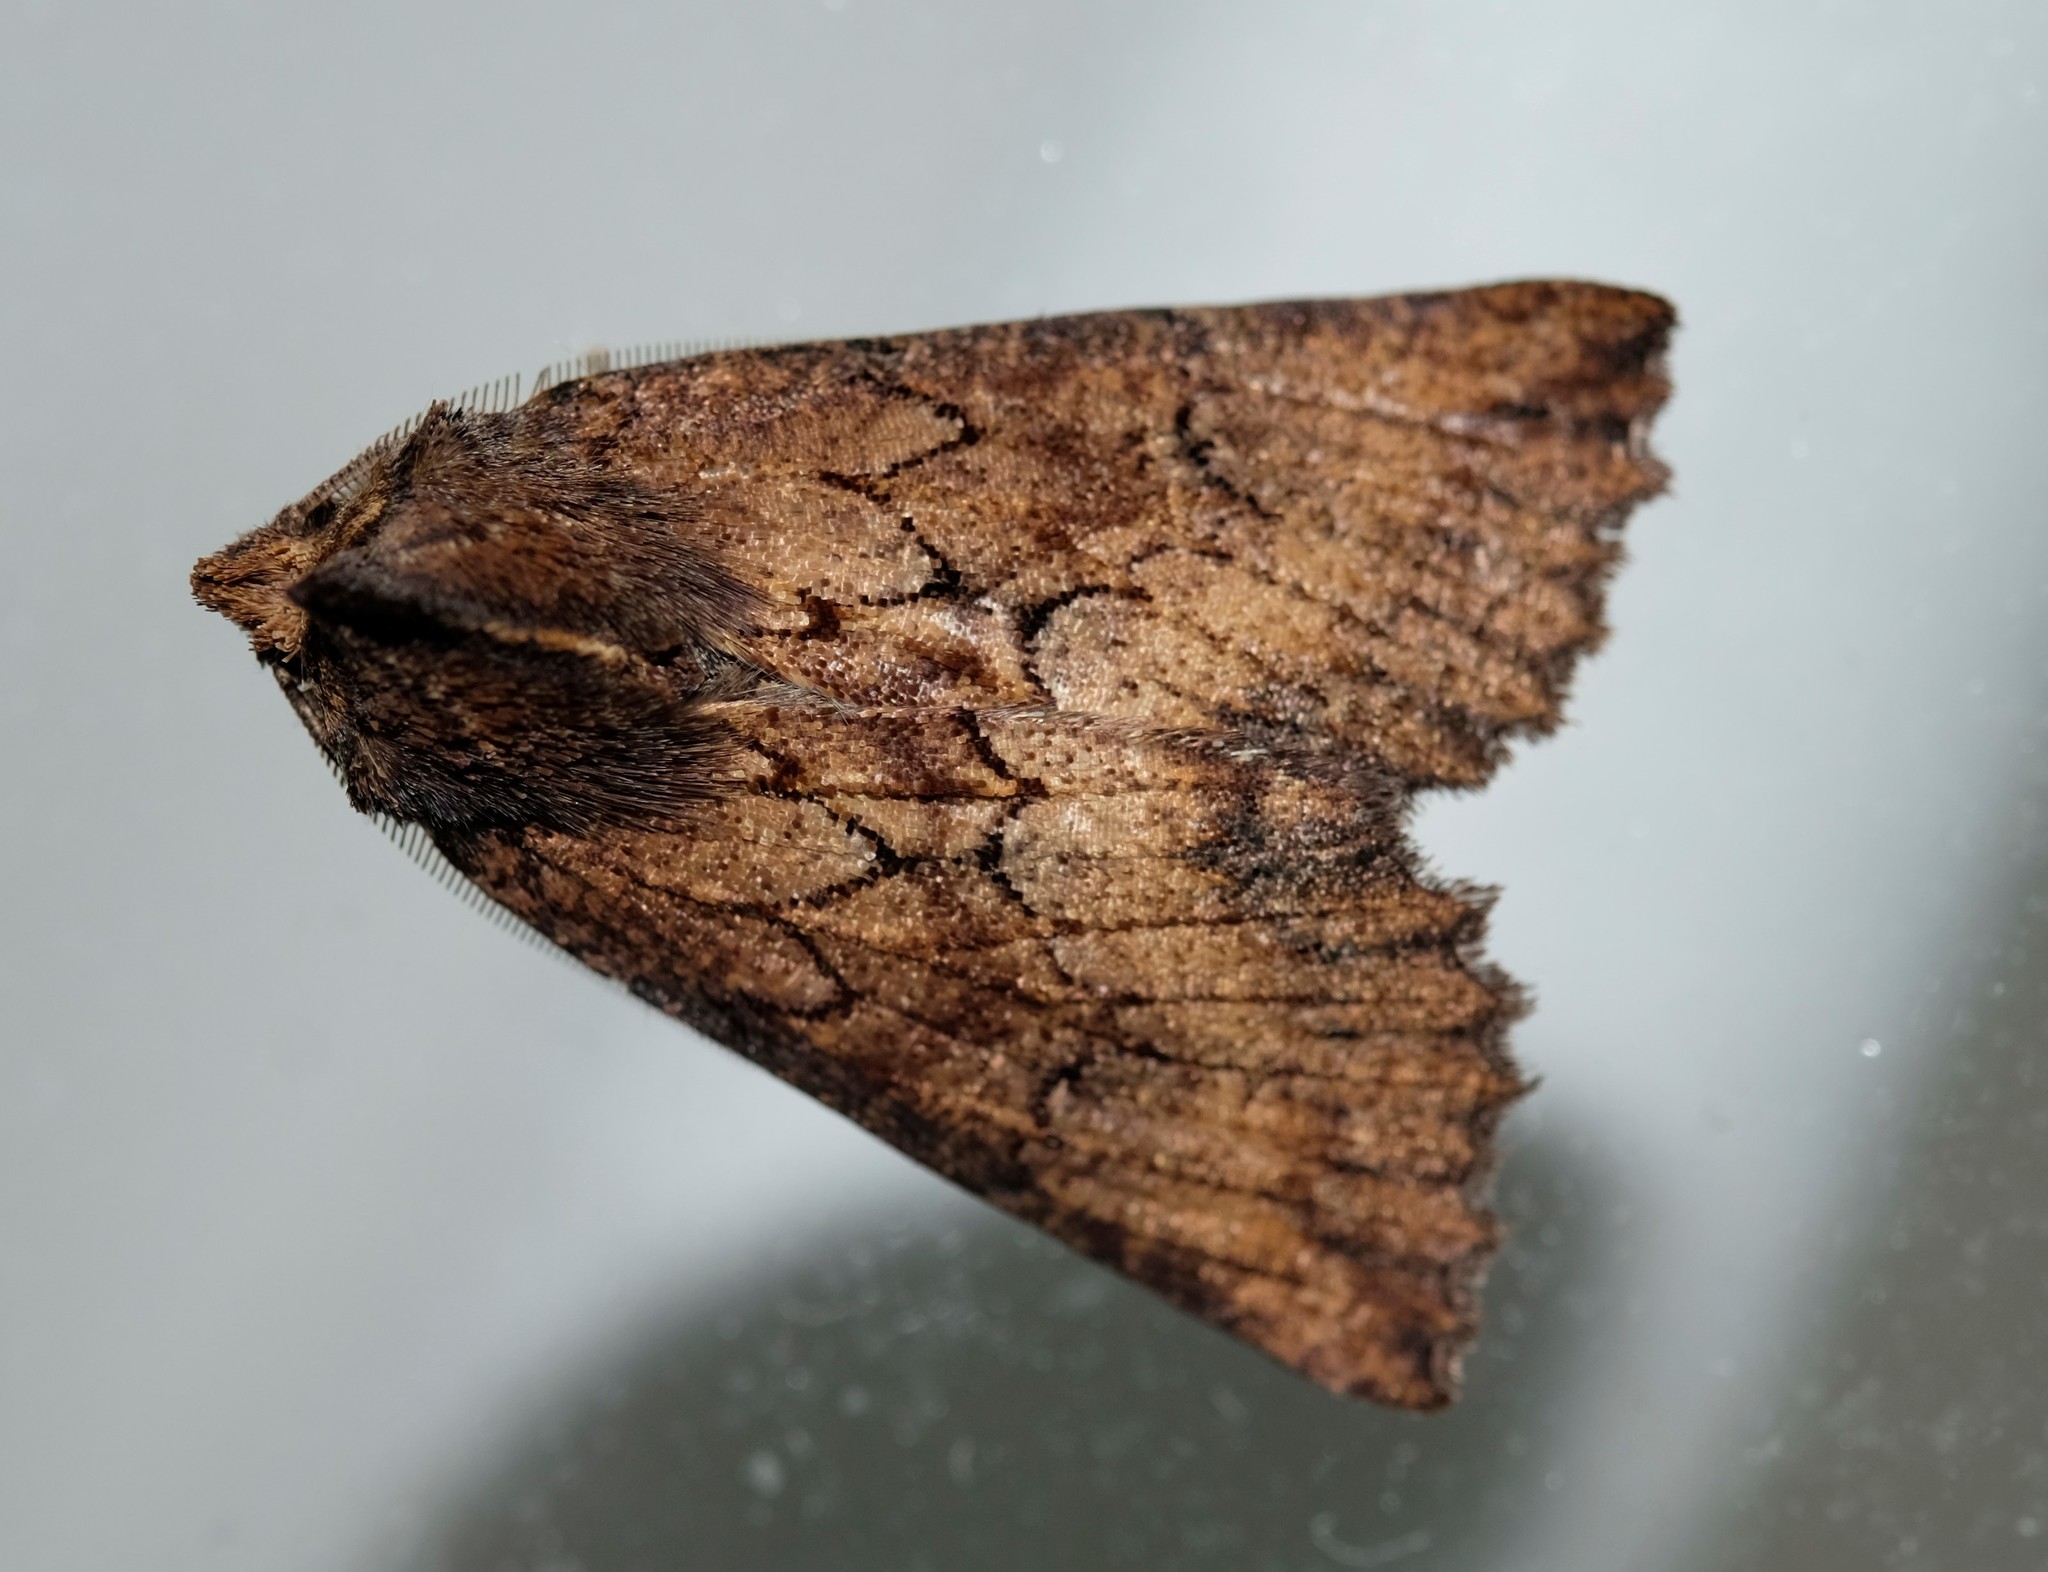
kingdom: Animalia
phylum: Arthropoda
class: Insecta
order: Lepidoptera
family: Geometridae
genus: Nisista
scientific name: Nisista serrata
